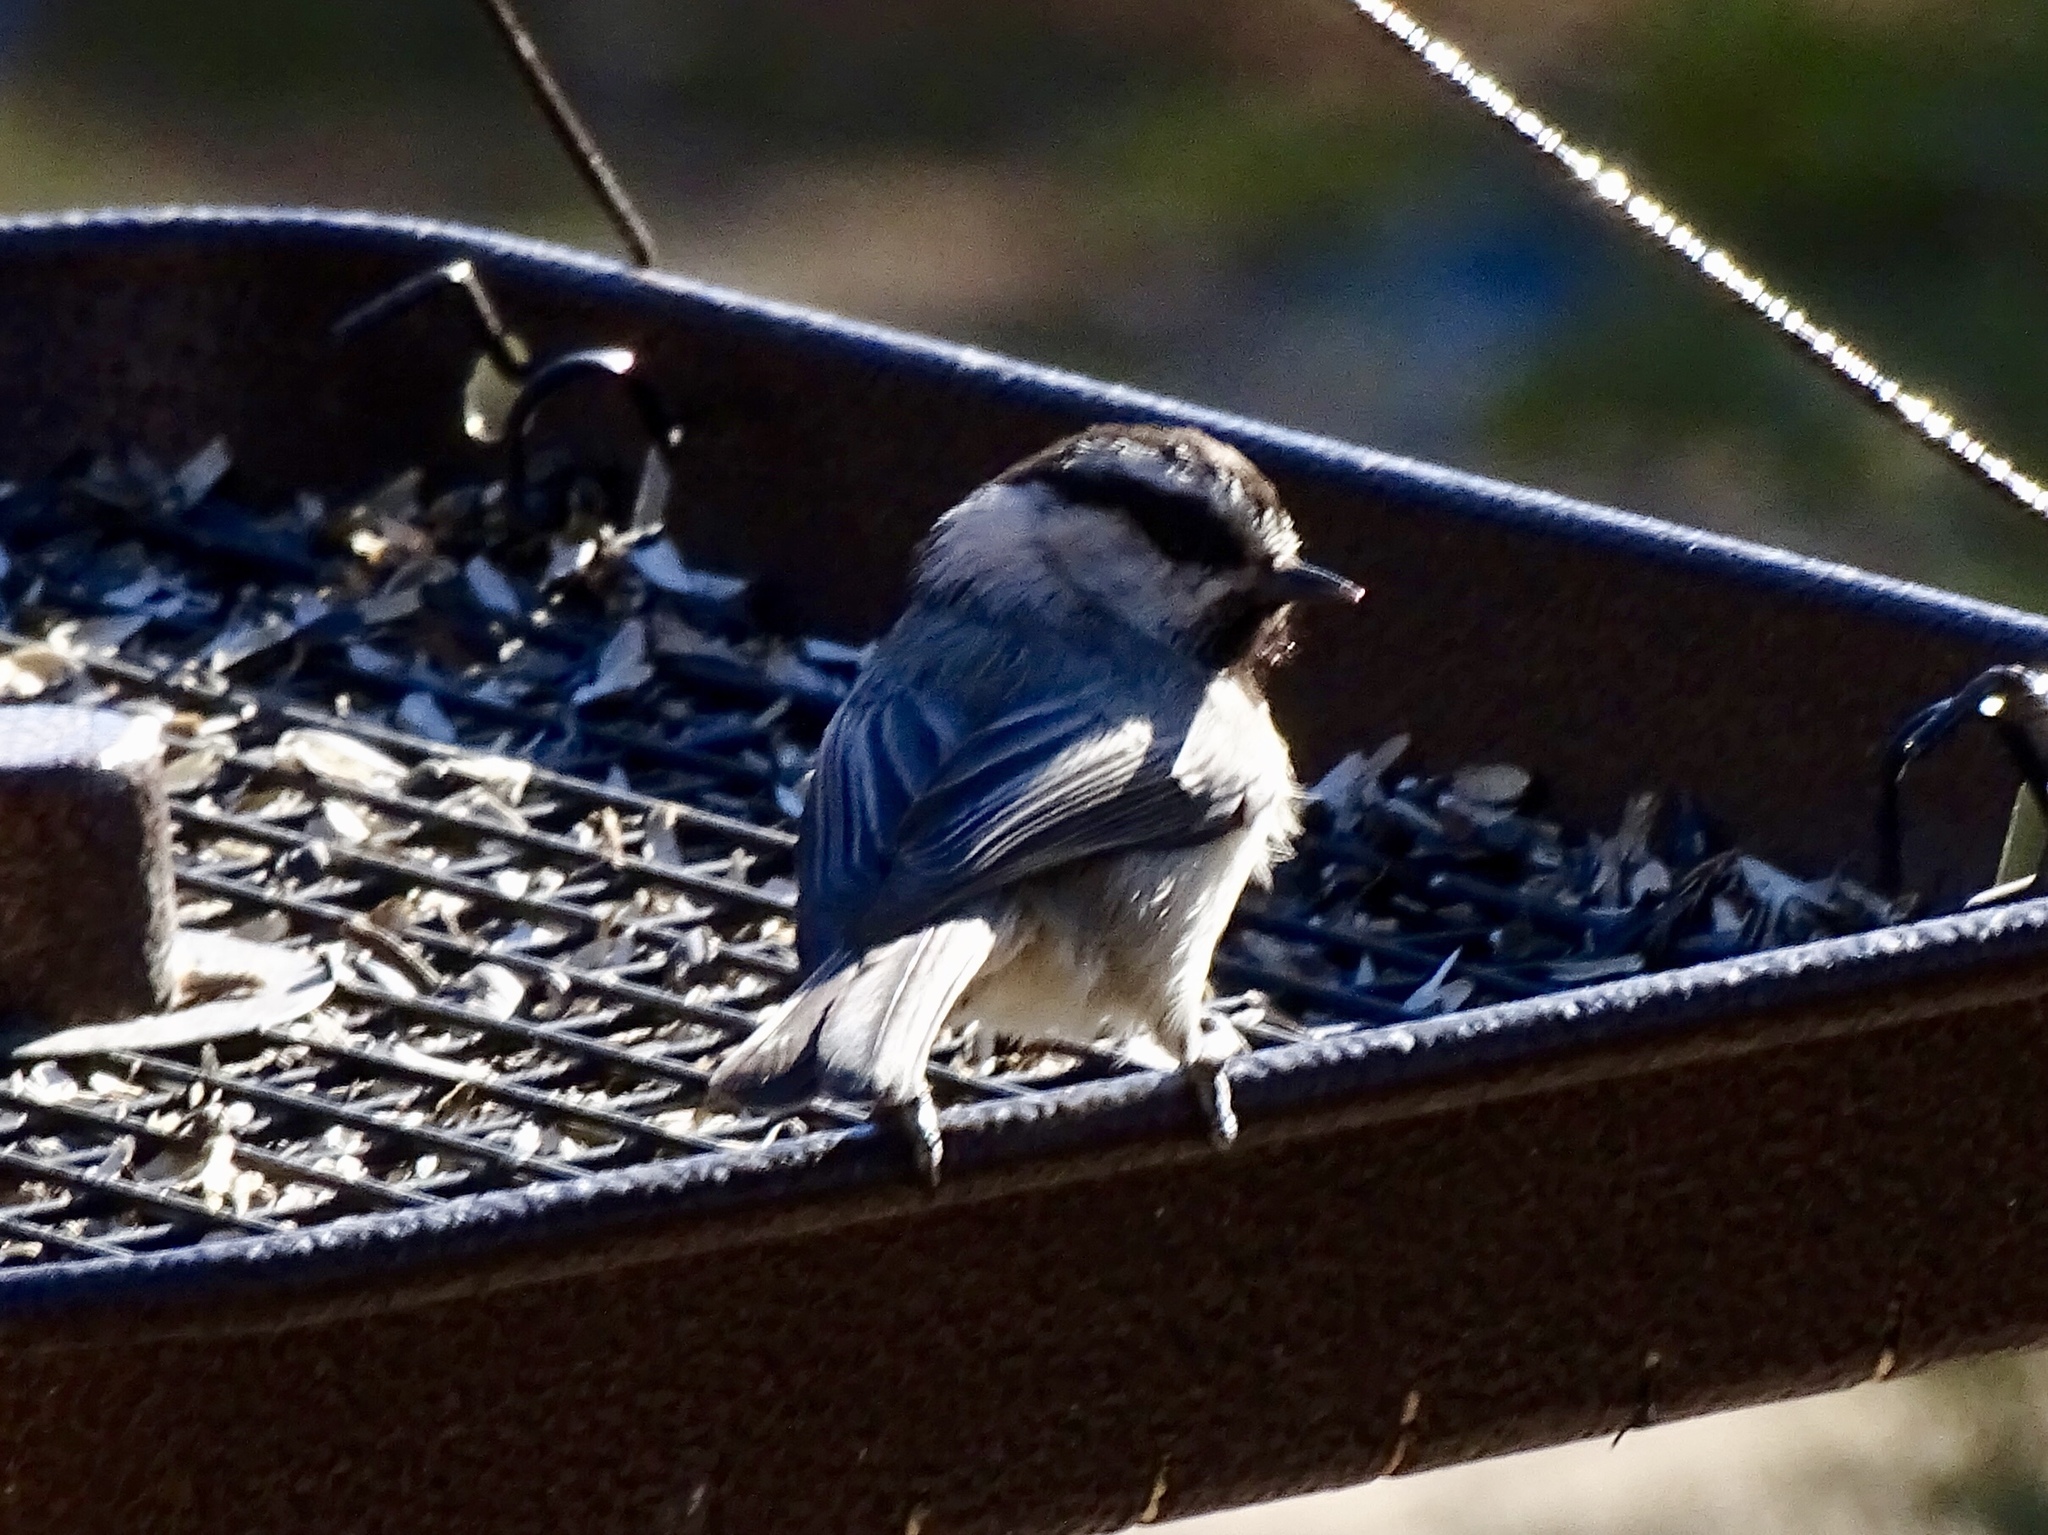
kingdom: Animalia
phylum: Chordata
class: Aves
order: Passeriformes
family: Paridae
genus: Poecile
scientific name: Poecile gambeli
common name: Mountain chickadee
